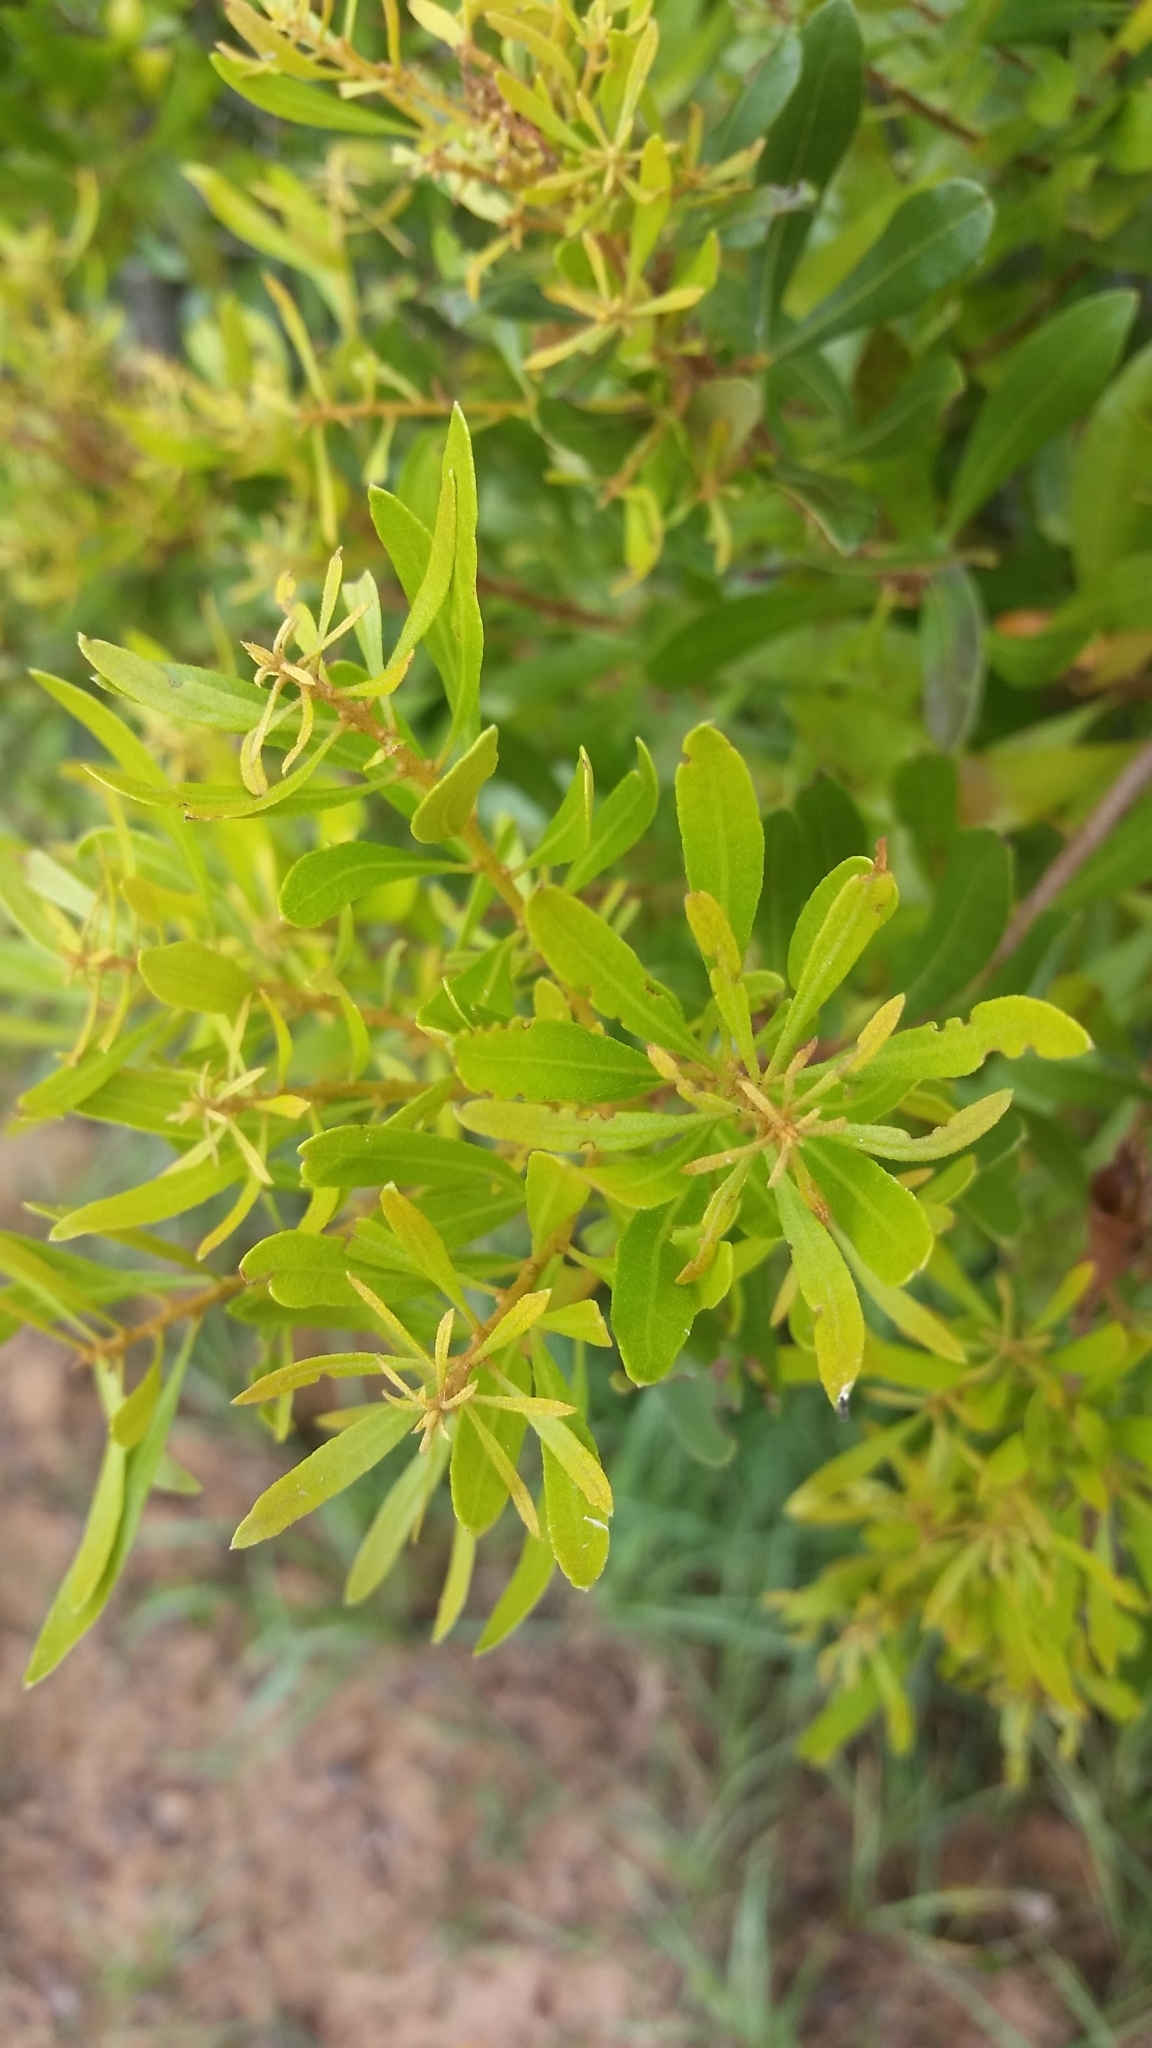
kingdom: Plantae
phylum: Tracheophyta
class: Magnoliopsida
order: Fagales
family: Myricaceae
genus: Morella
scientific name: Morella cerifera
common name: Wax myrtle
